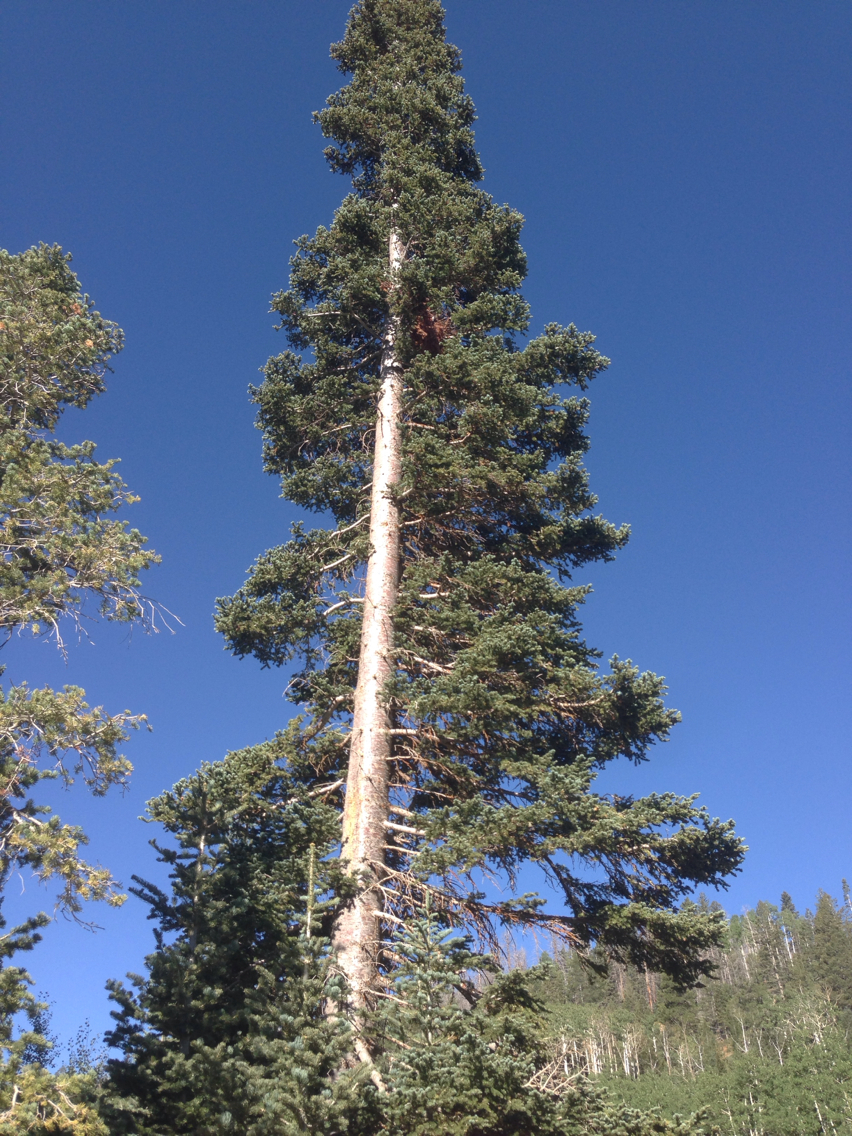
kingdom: Plantae
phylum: Tracheophyta
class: Pinopsida
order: Pinales
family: Pinaceae
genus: Abies
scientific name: Abies concolor
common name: Colorado fir
